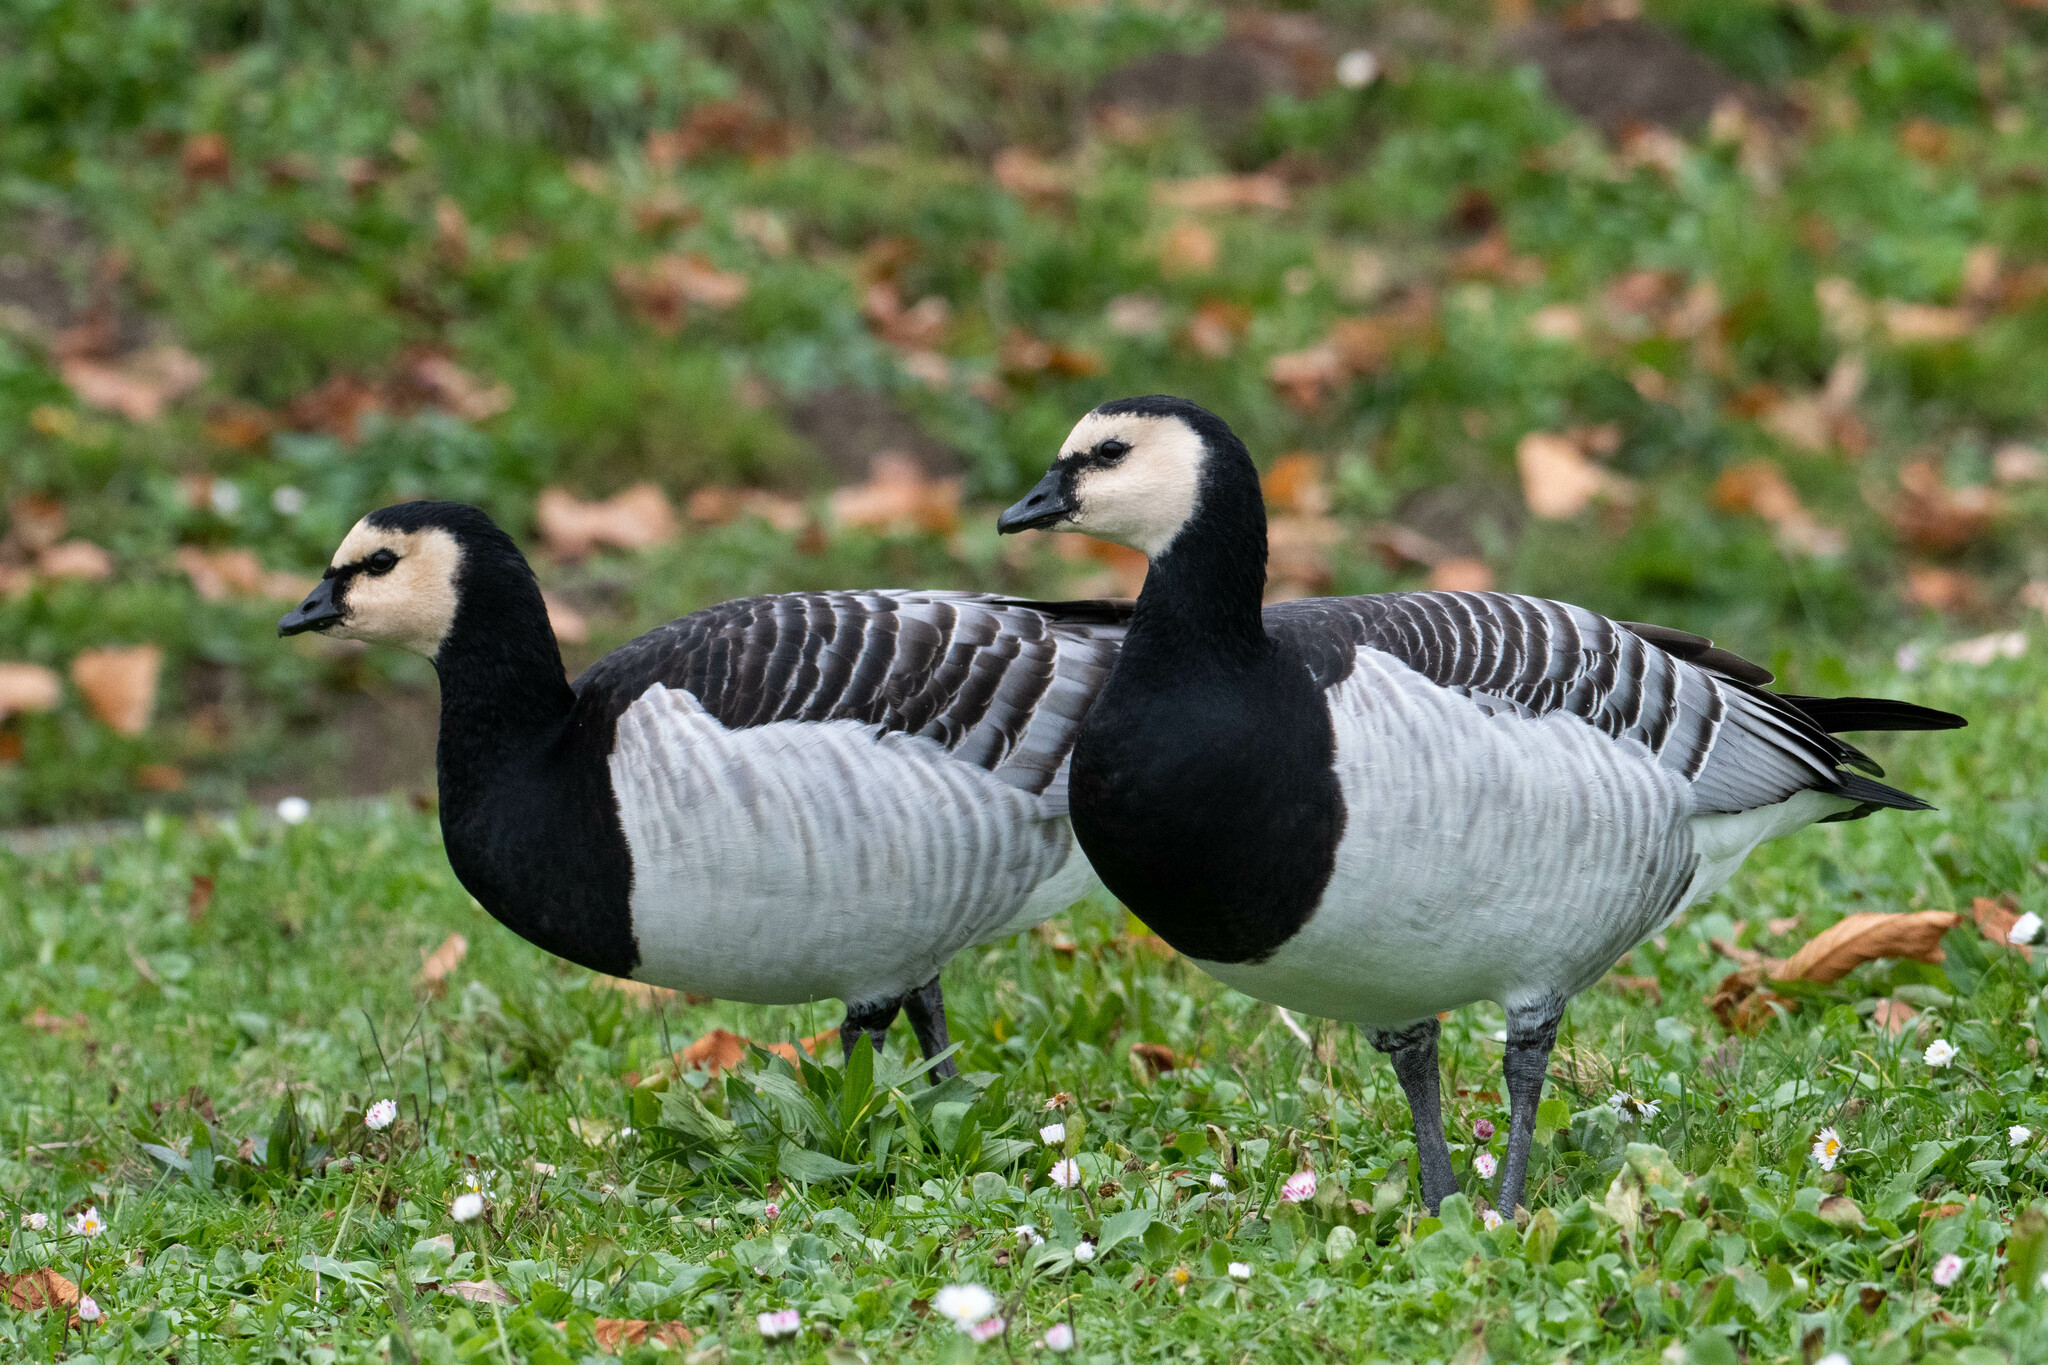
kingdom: Animalia
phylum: Chordata
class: Aves
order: Anseriformes
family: Anatidae
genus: Branta
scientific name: Branta leucopsis
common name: Barnacle goose
